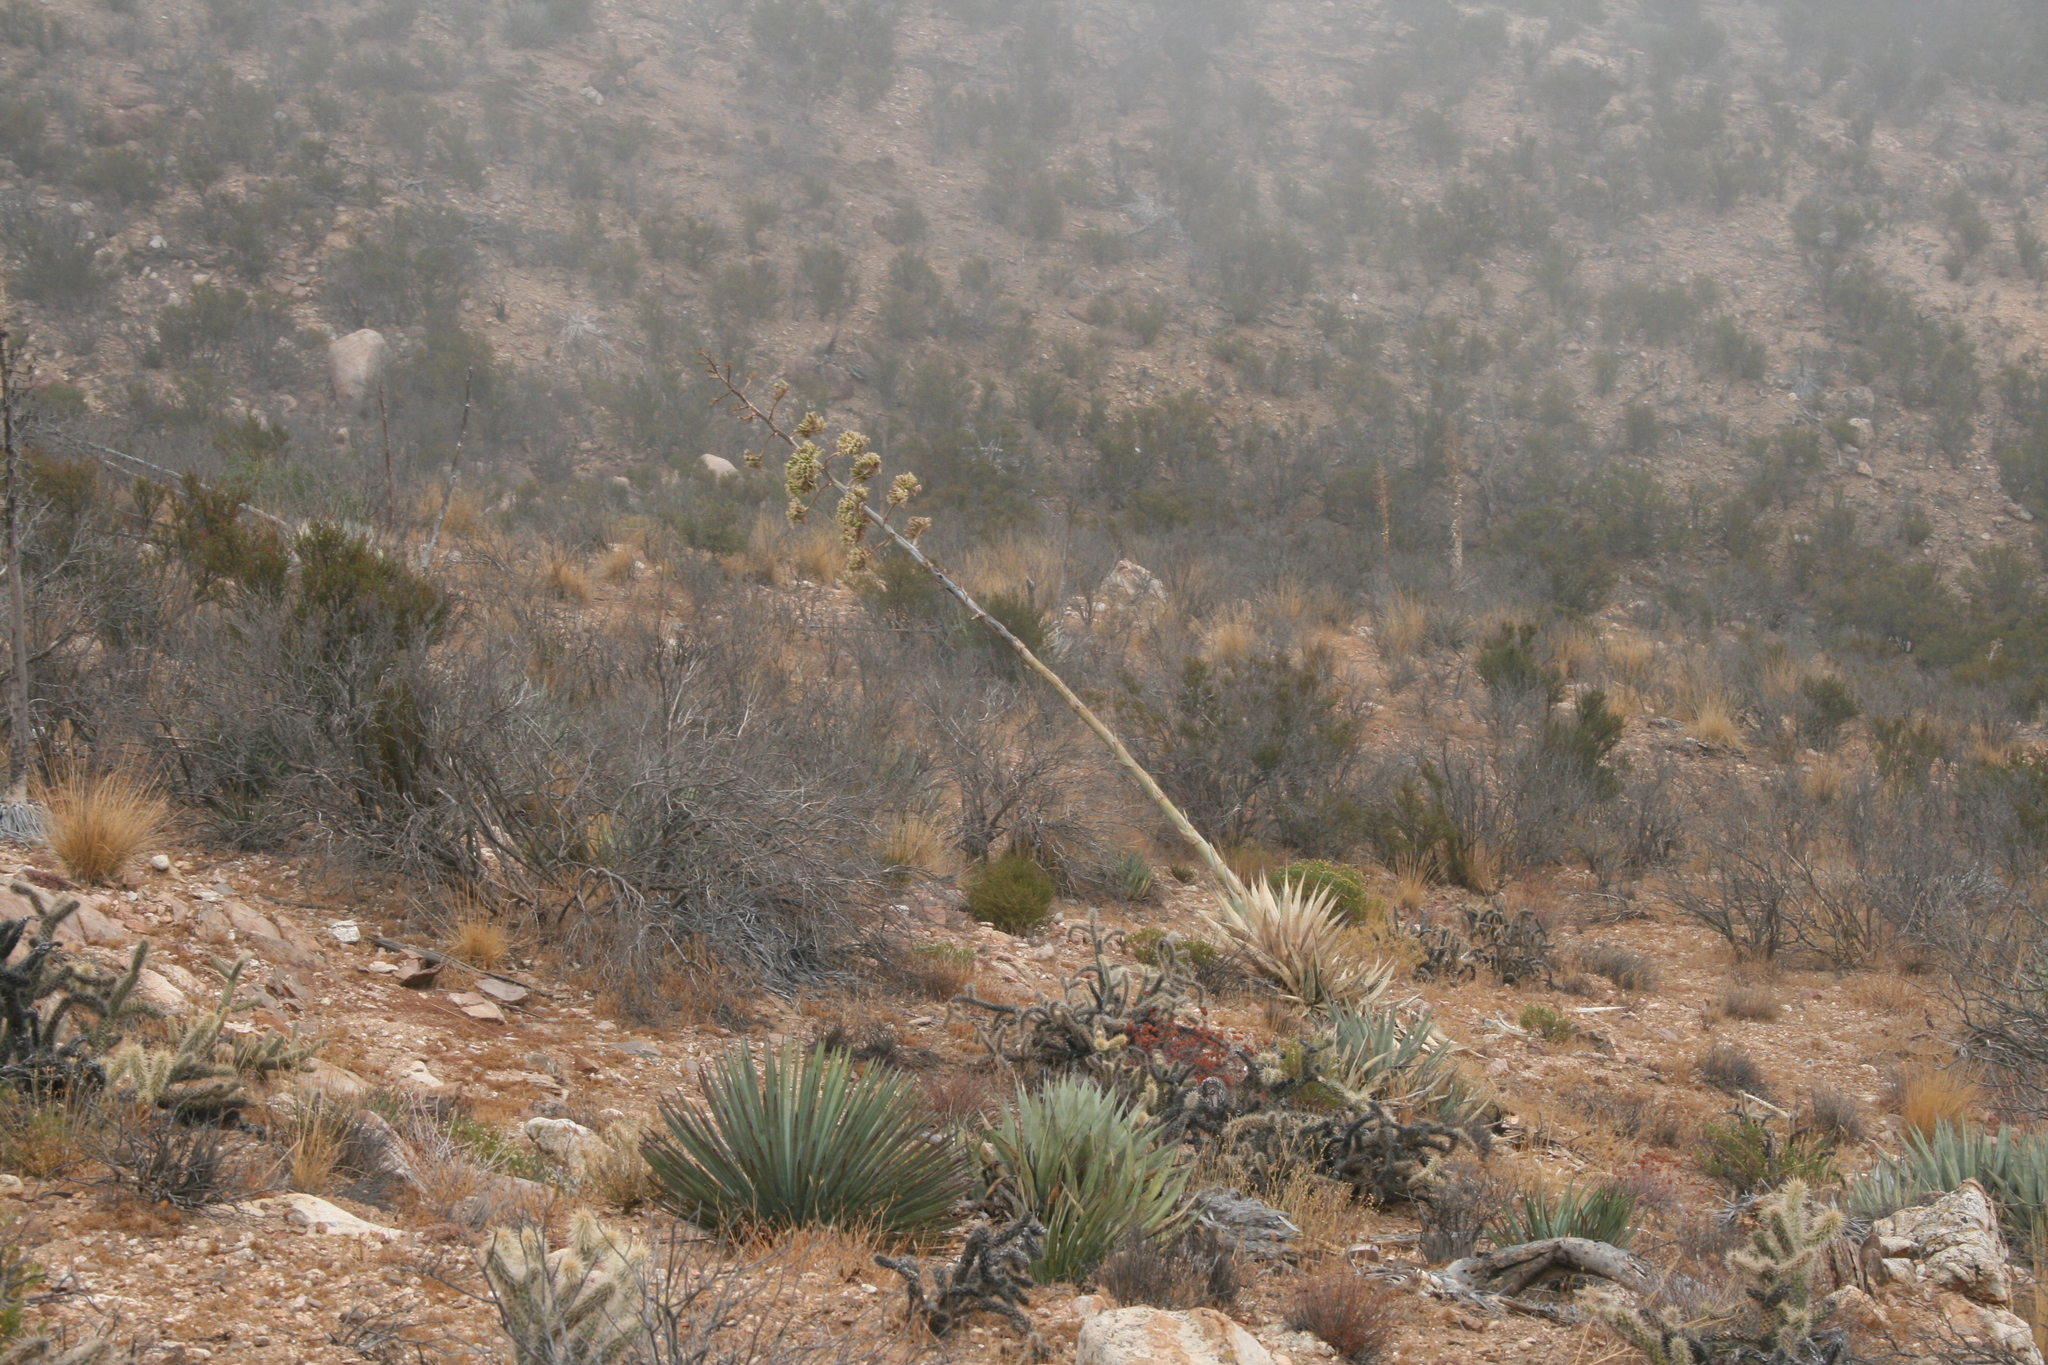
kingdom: Plantae
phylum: Tracheophyta
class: Liliopsida
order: Asparagales
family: Asparagaceae
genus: Agave
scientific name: Agave deserti
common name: Desert agave
